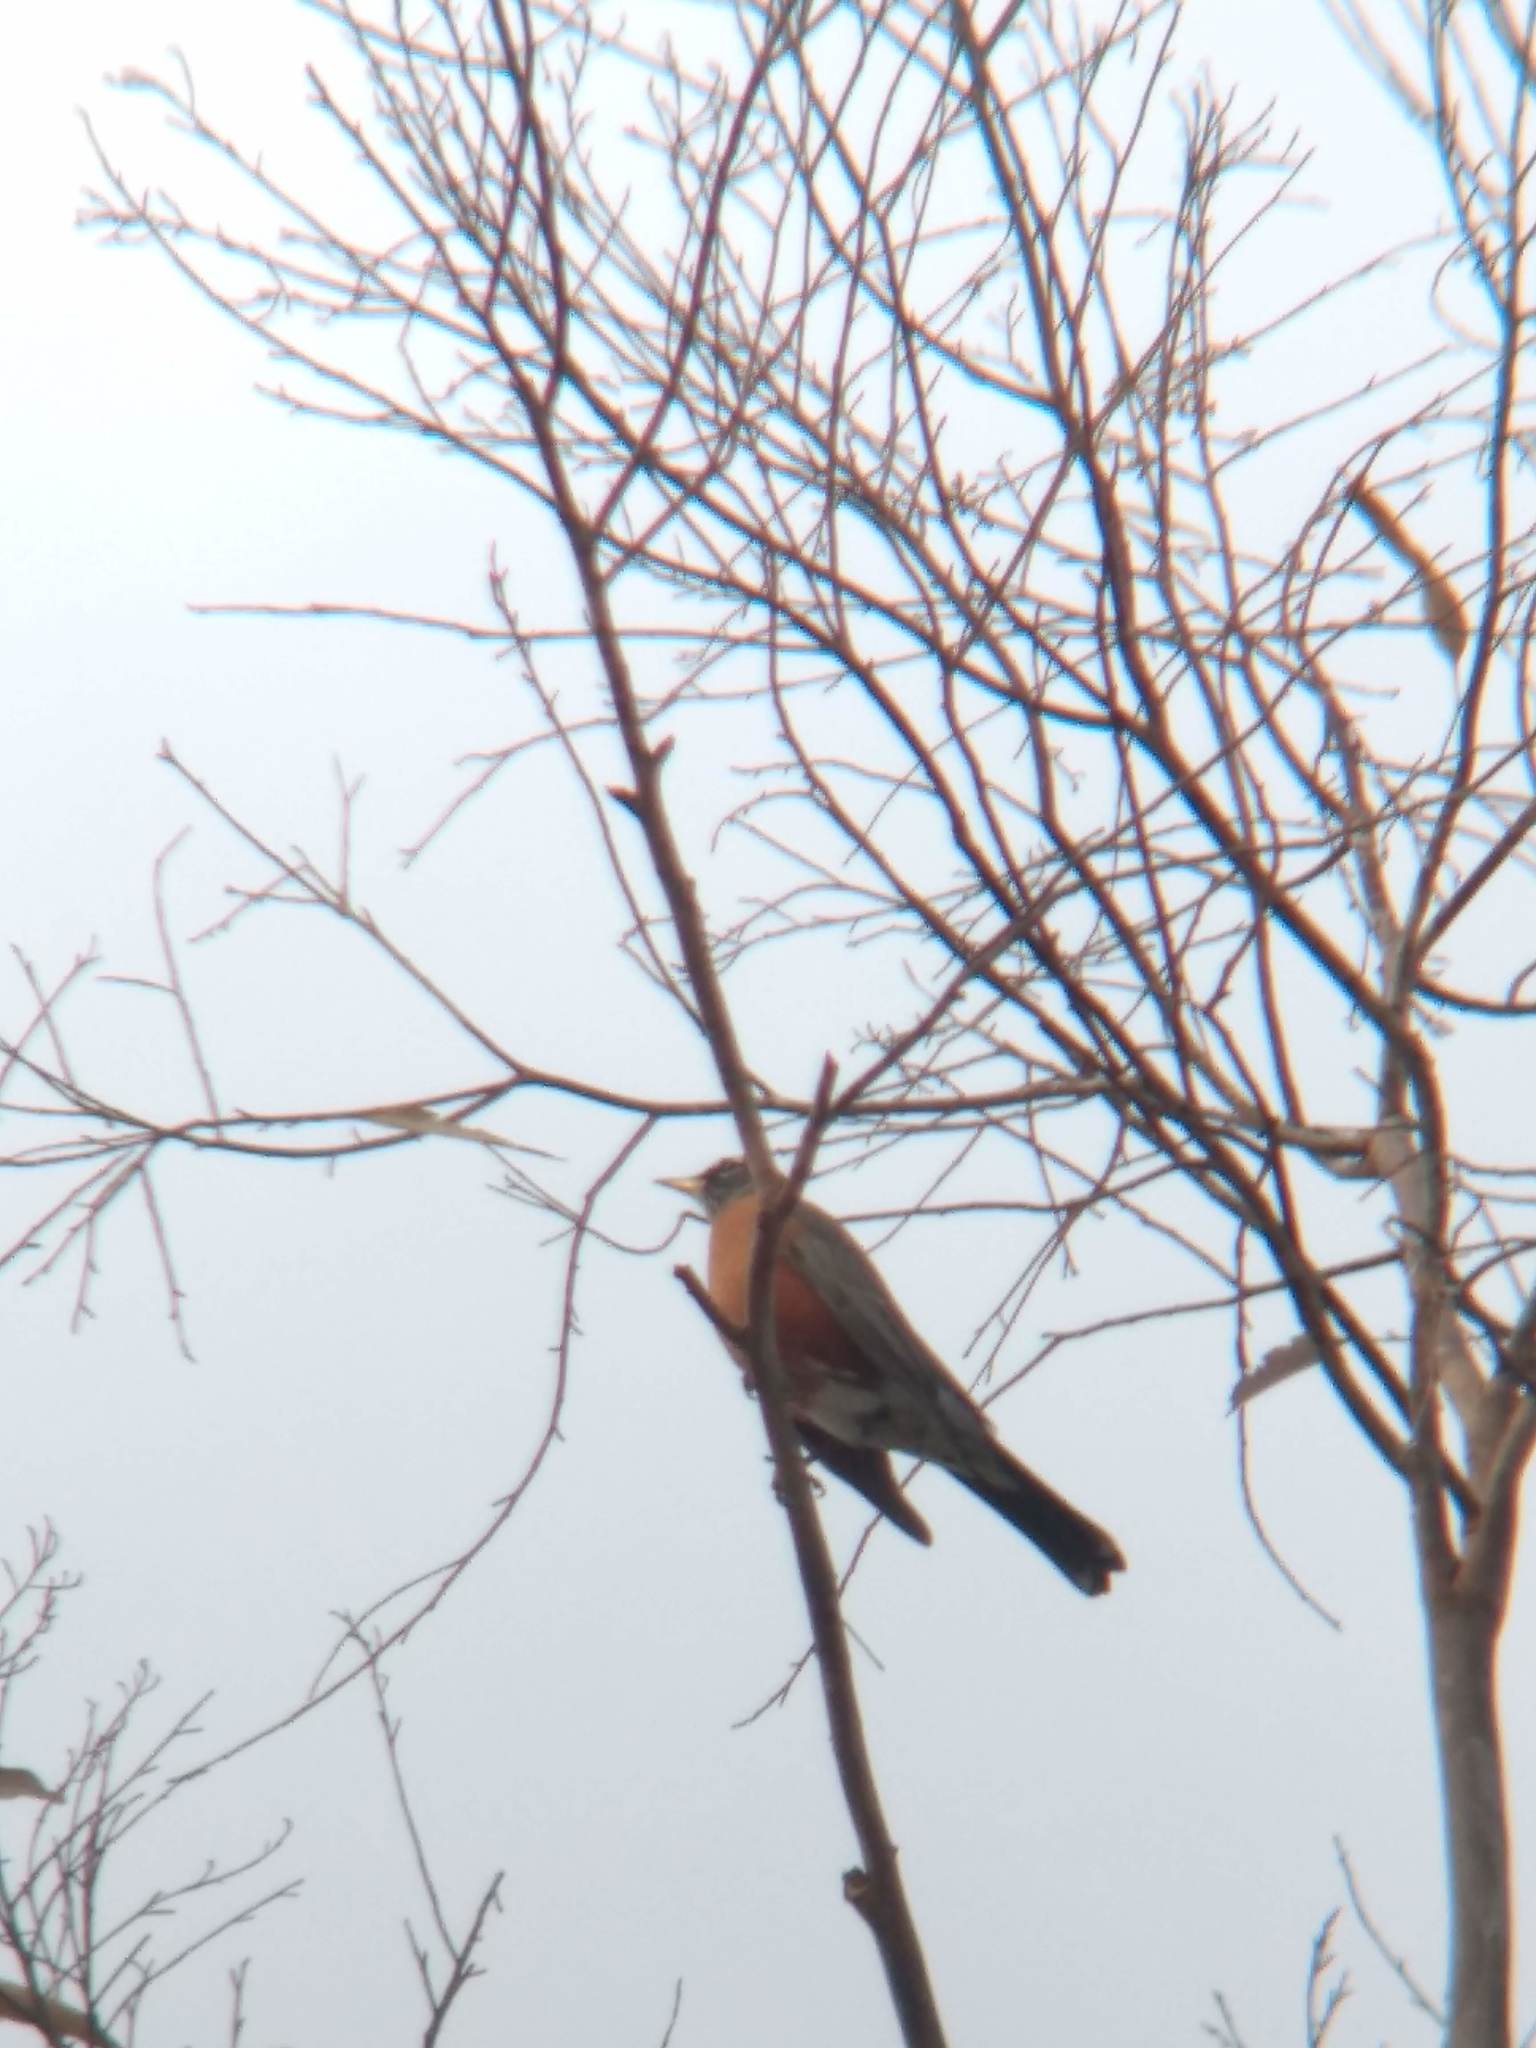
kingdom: Animalia
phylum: Chordata
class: Aves
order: Passeriformes
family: Turdidae
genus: Turdus
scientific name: Turdus migratorius
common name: American robin
